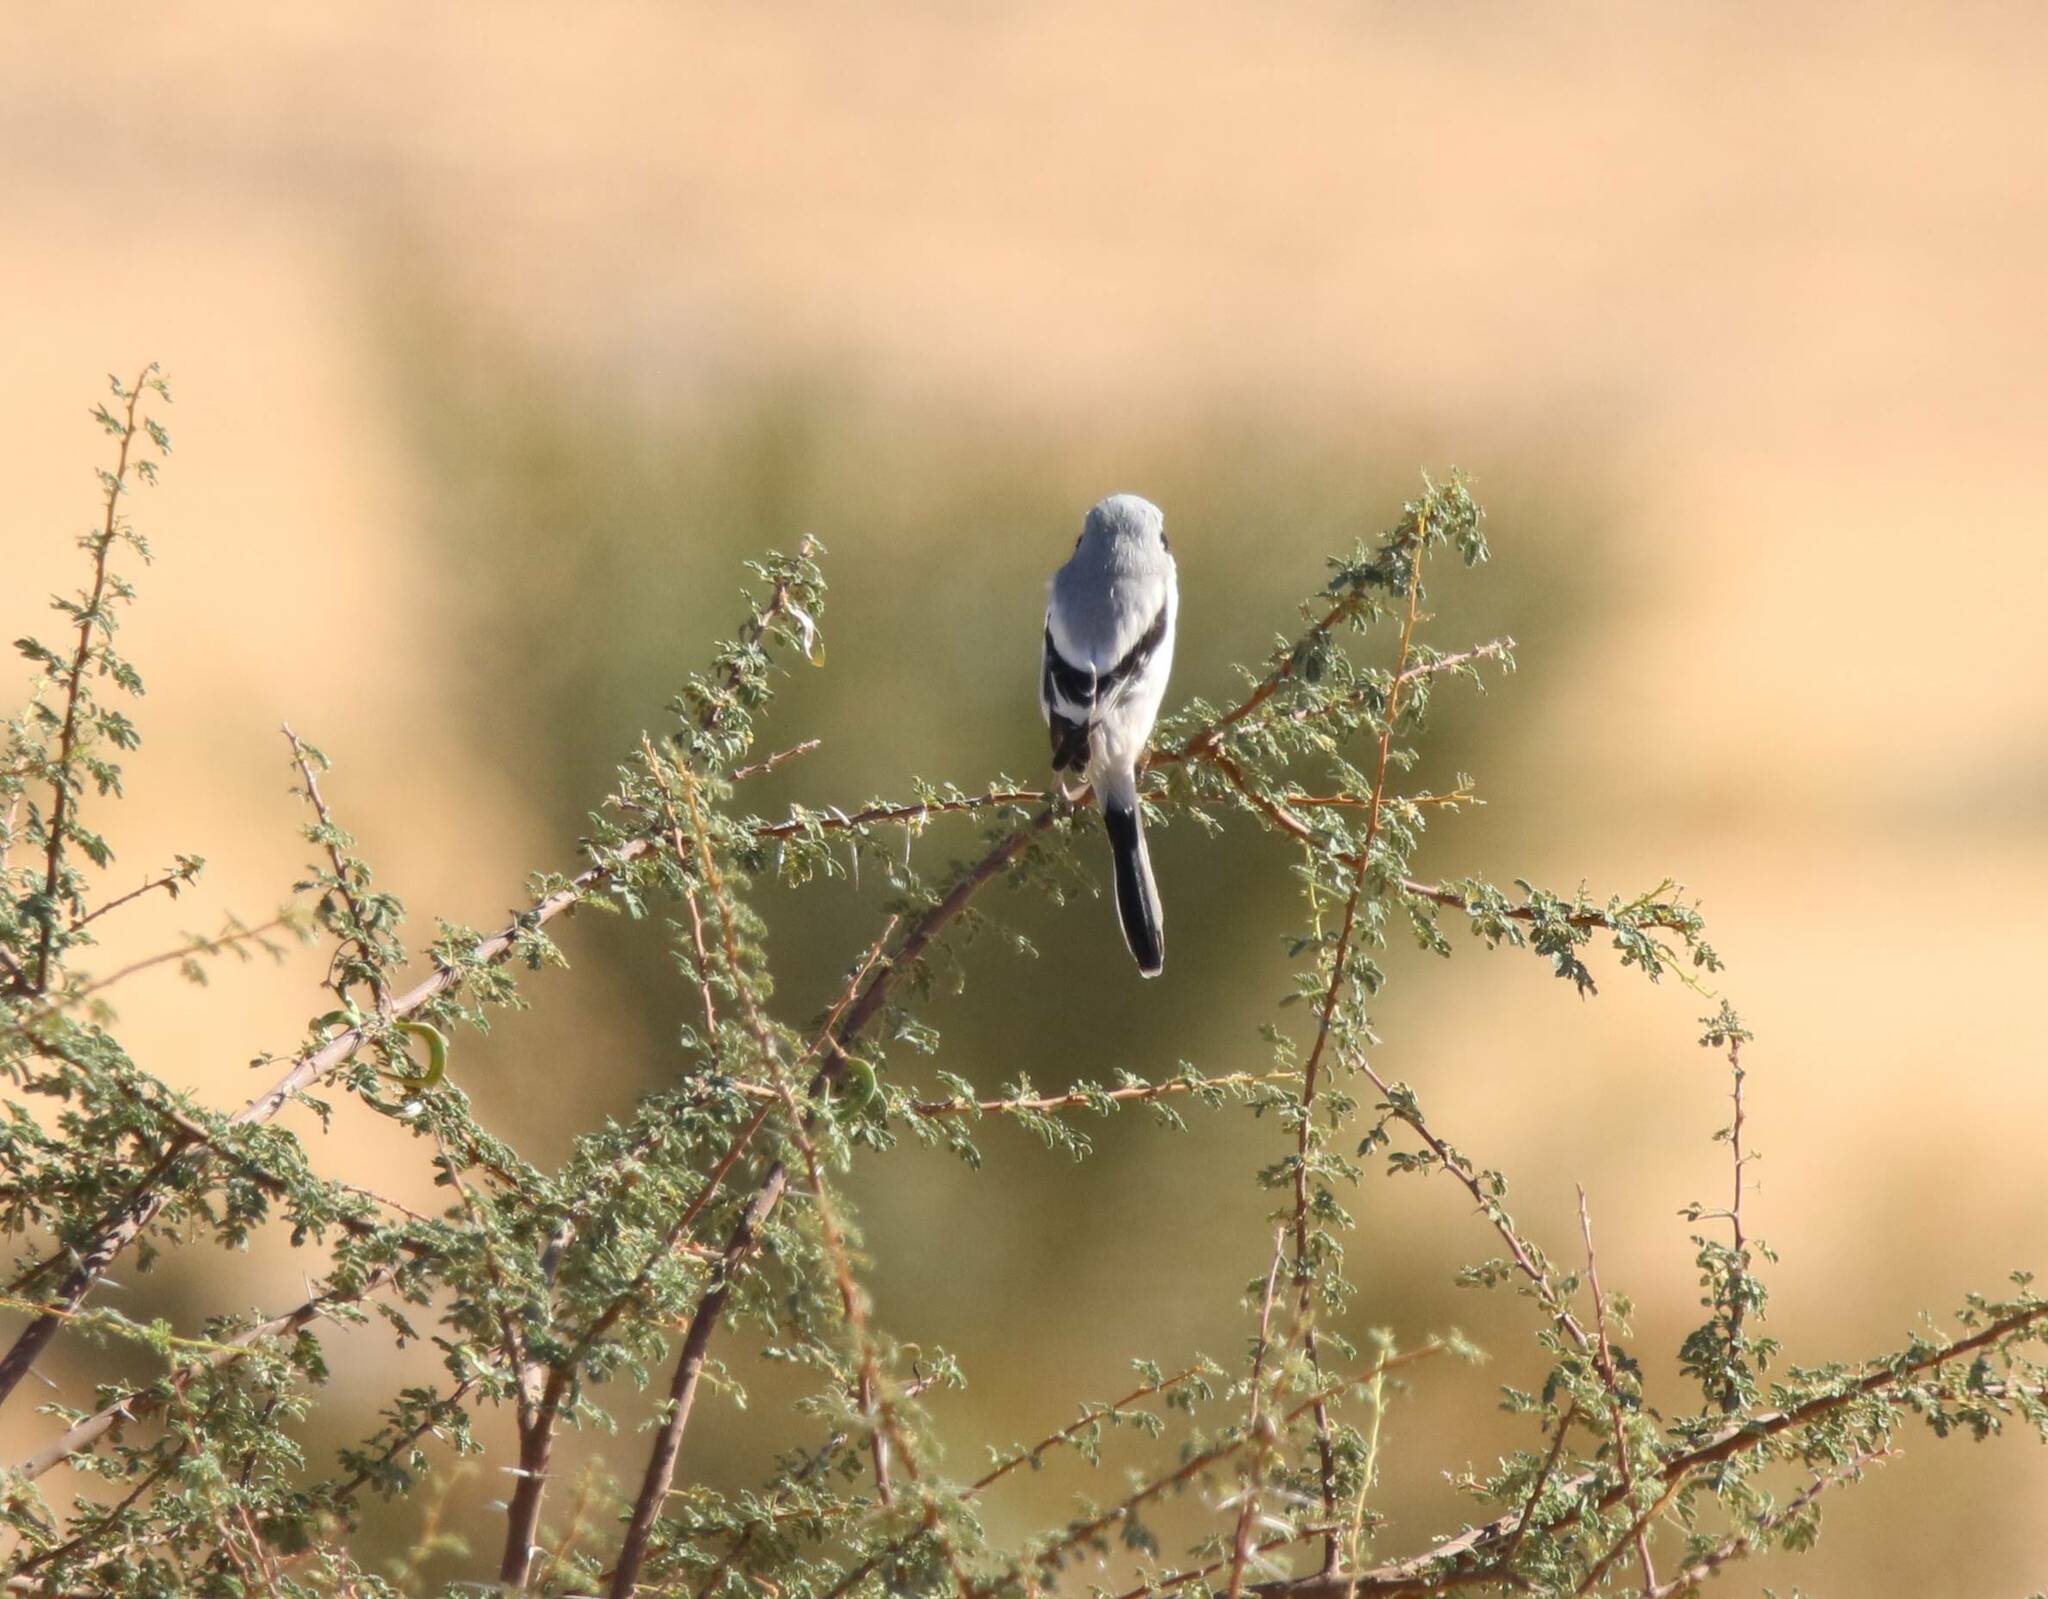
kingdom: Animalia
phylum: Chordata
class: Aves
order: Passeriformes
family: Laniidae
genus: Lanius
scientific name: Lanius excubitor
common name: Great grey shrike
